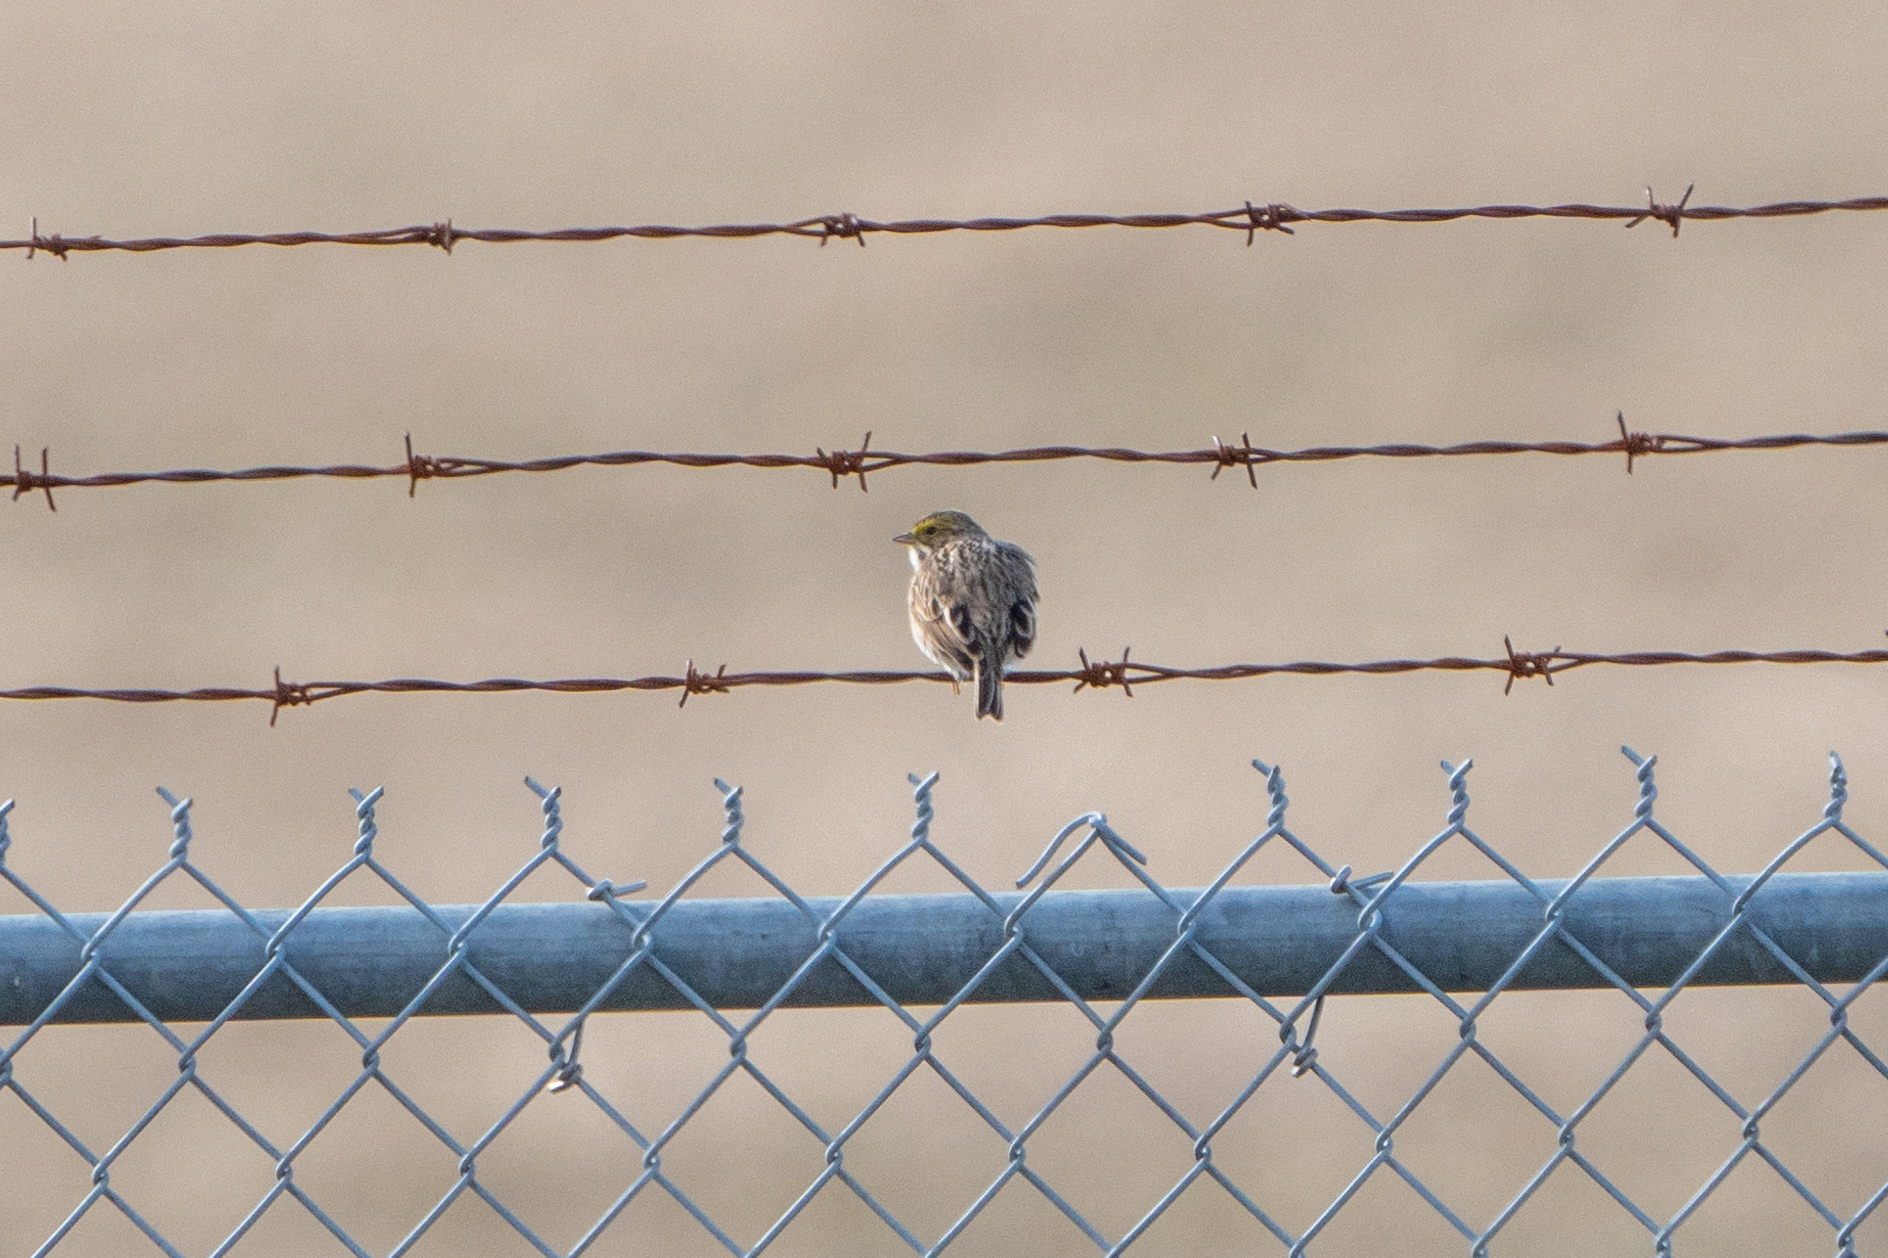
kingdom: Animalia
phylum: Chordata
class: Aves
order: Passeriformes
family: Passerellidae
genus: Passerculus
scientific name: Passerculus sandwichensis
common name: Savannah sparrow
